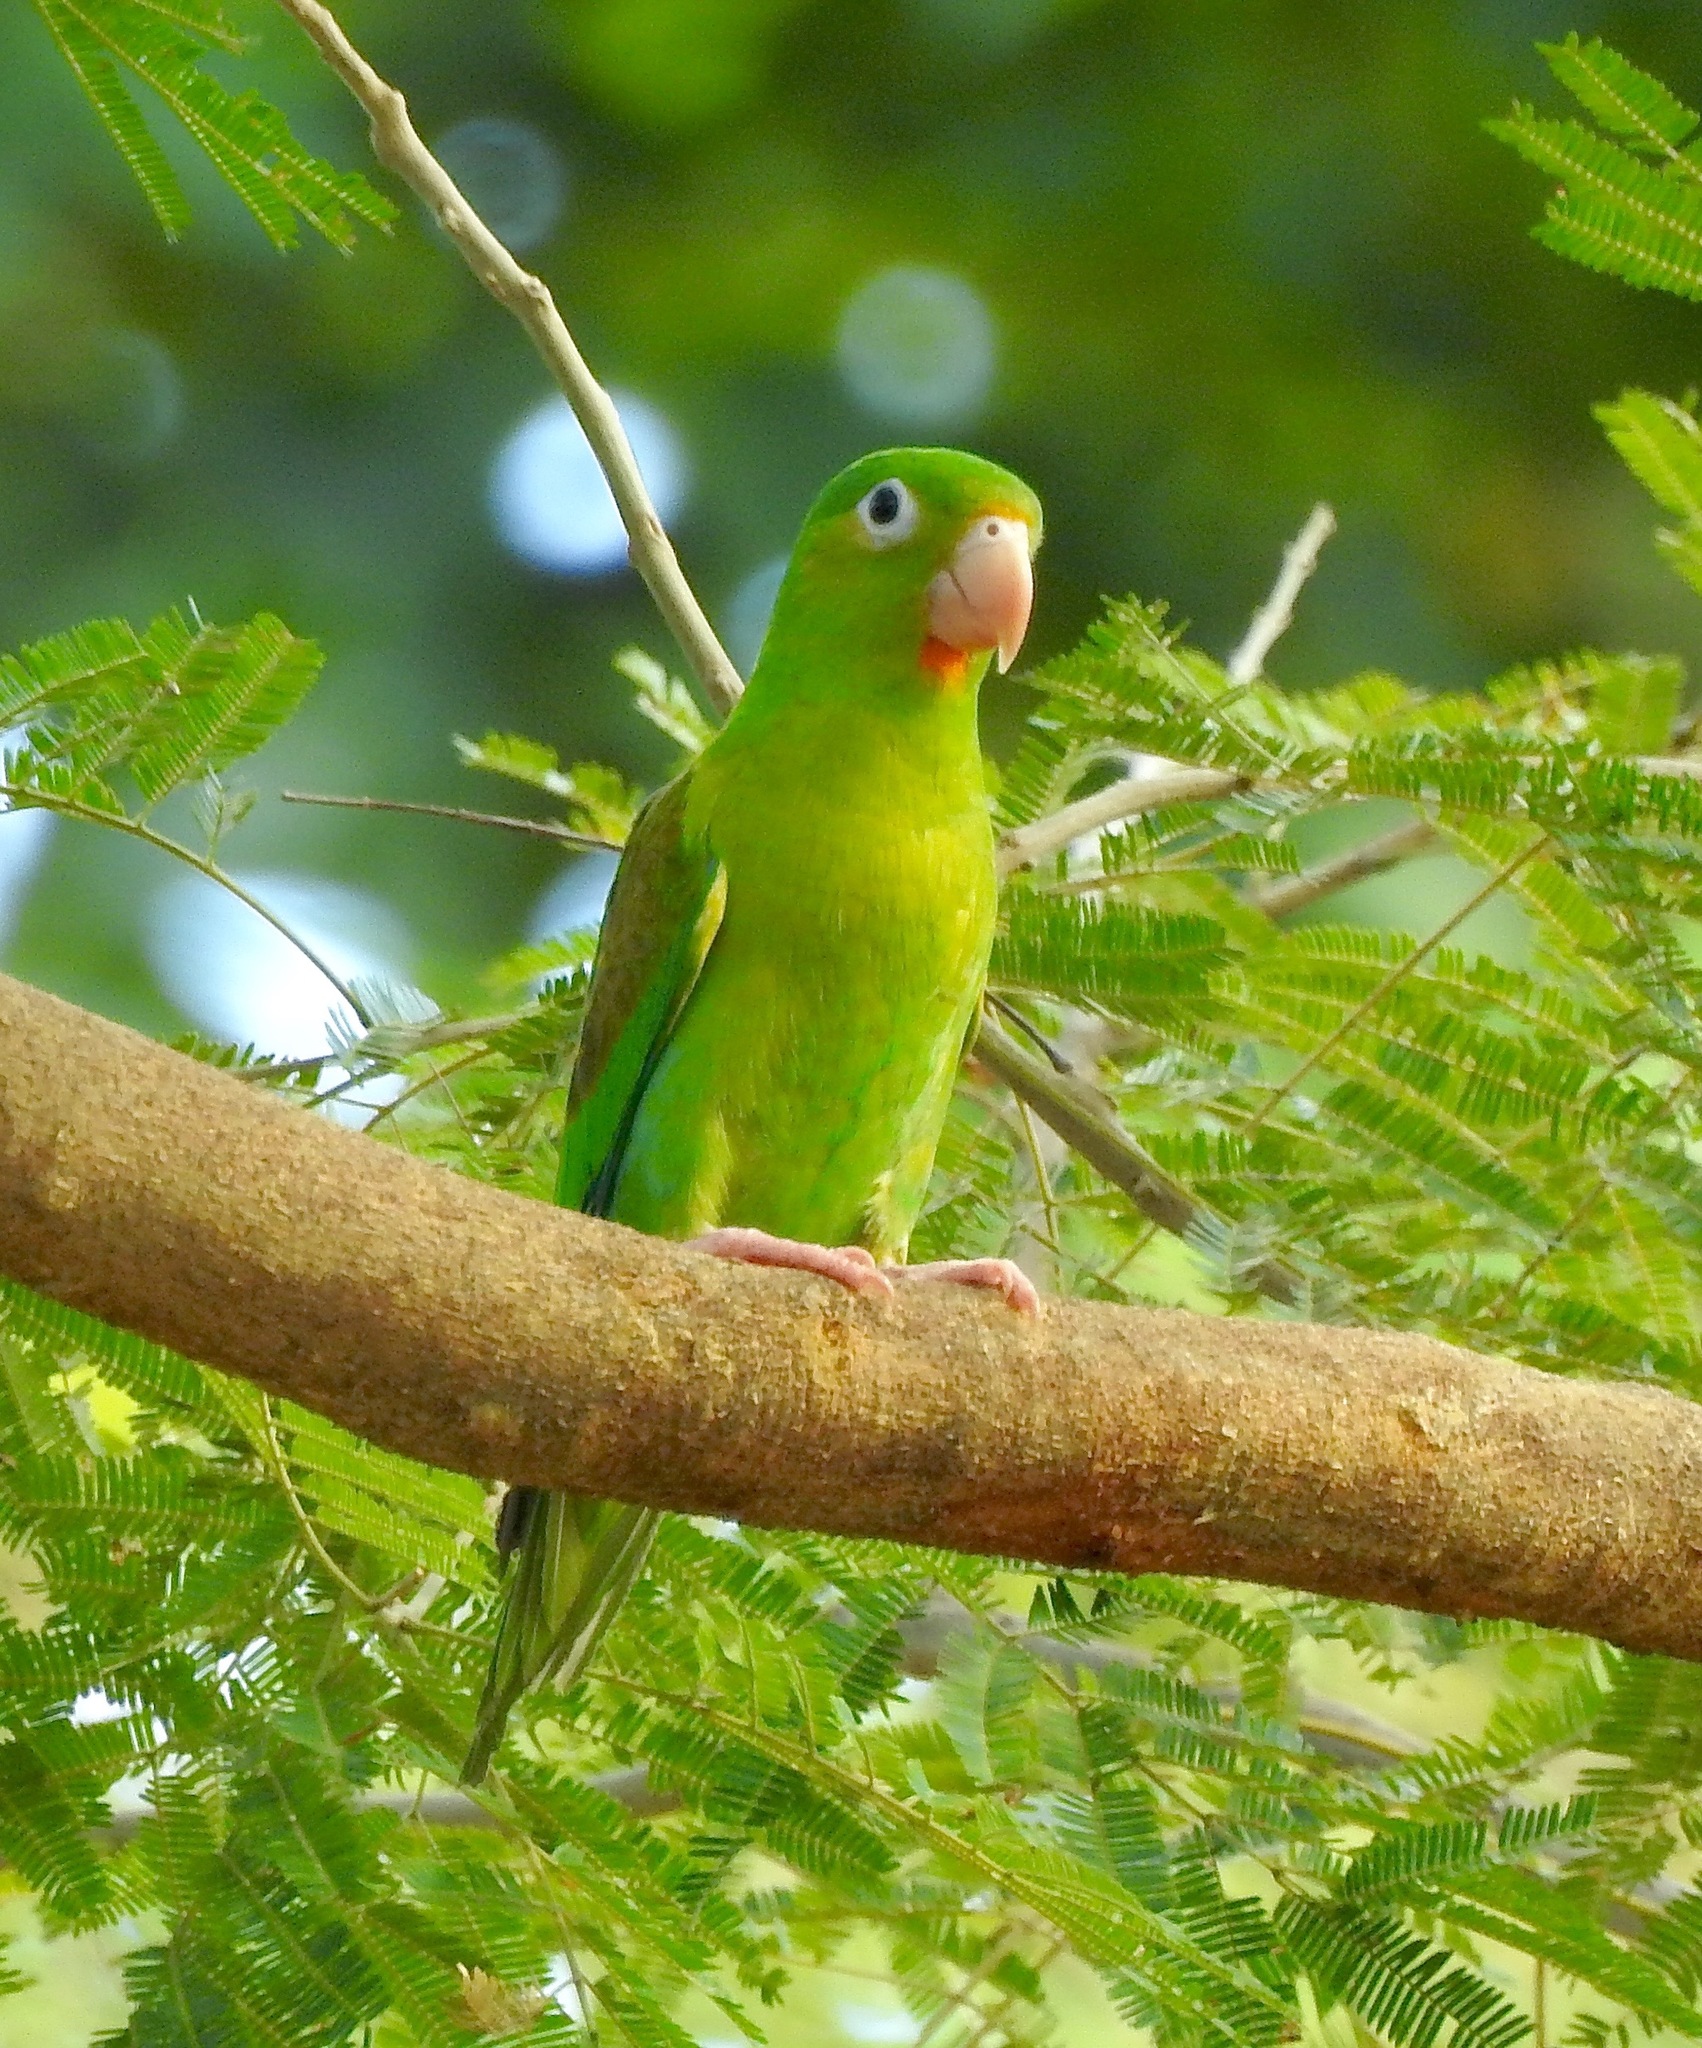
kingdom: Animalia
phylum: Chordata
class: Aves
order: Psittaciformes
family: Psittacidae
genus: Brotogeris
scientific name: Brotogeris jugularis
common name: Orange-chinned parakeet
